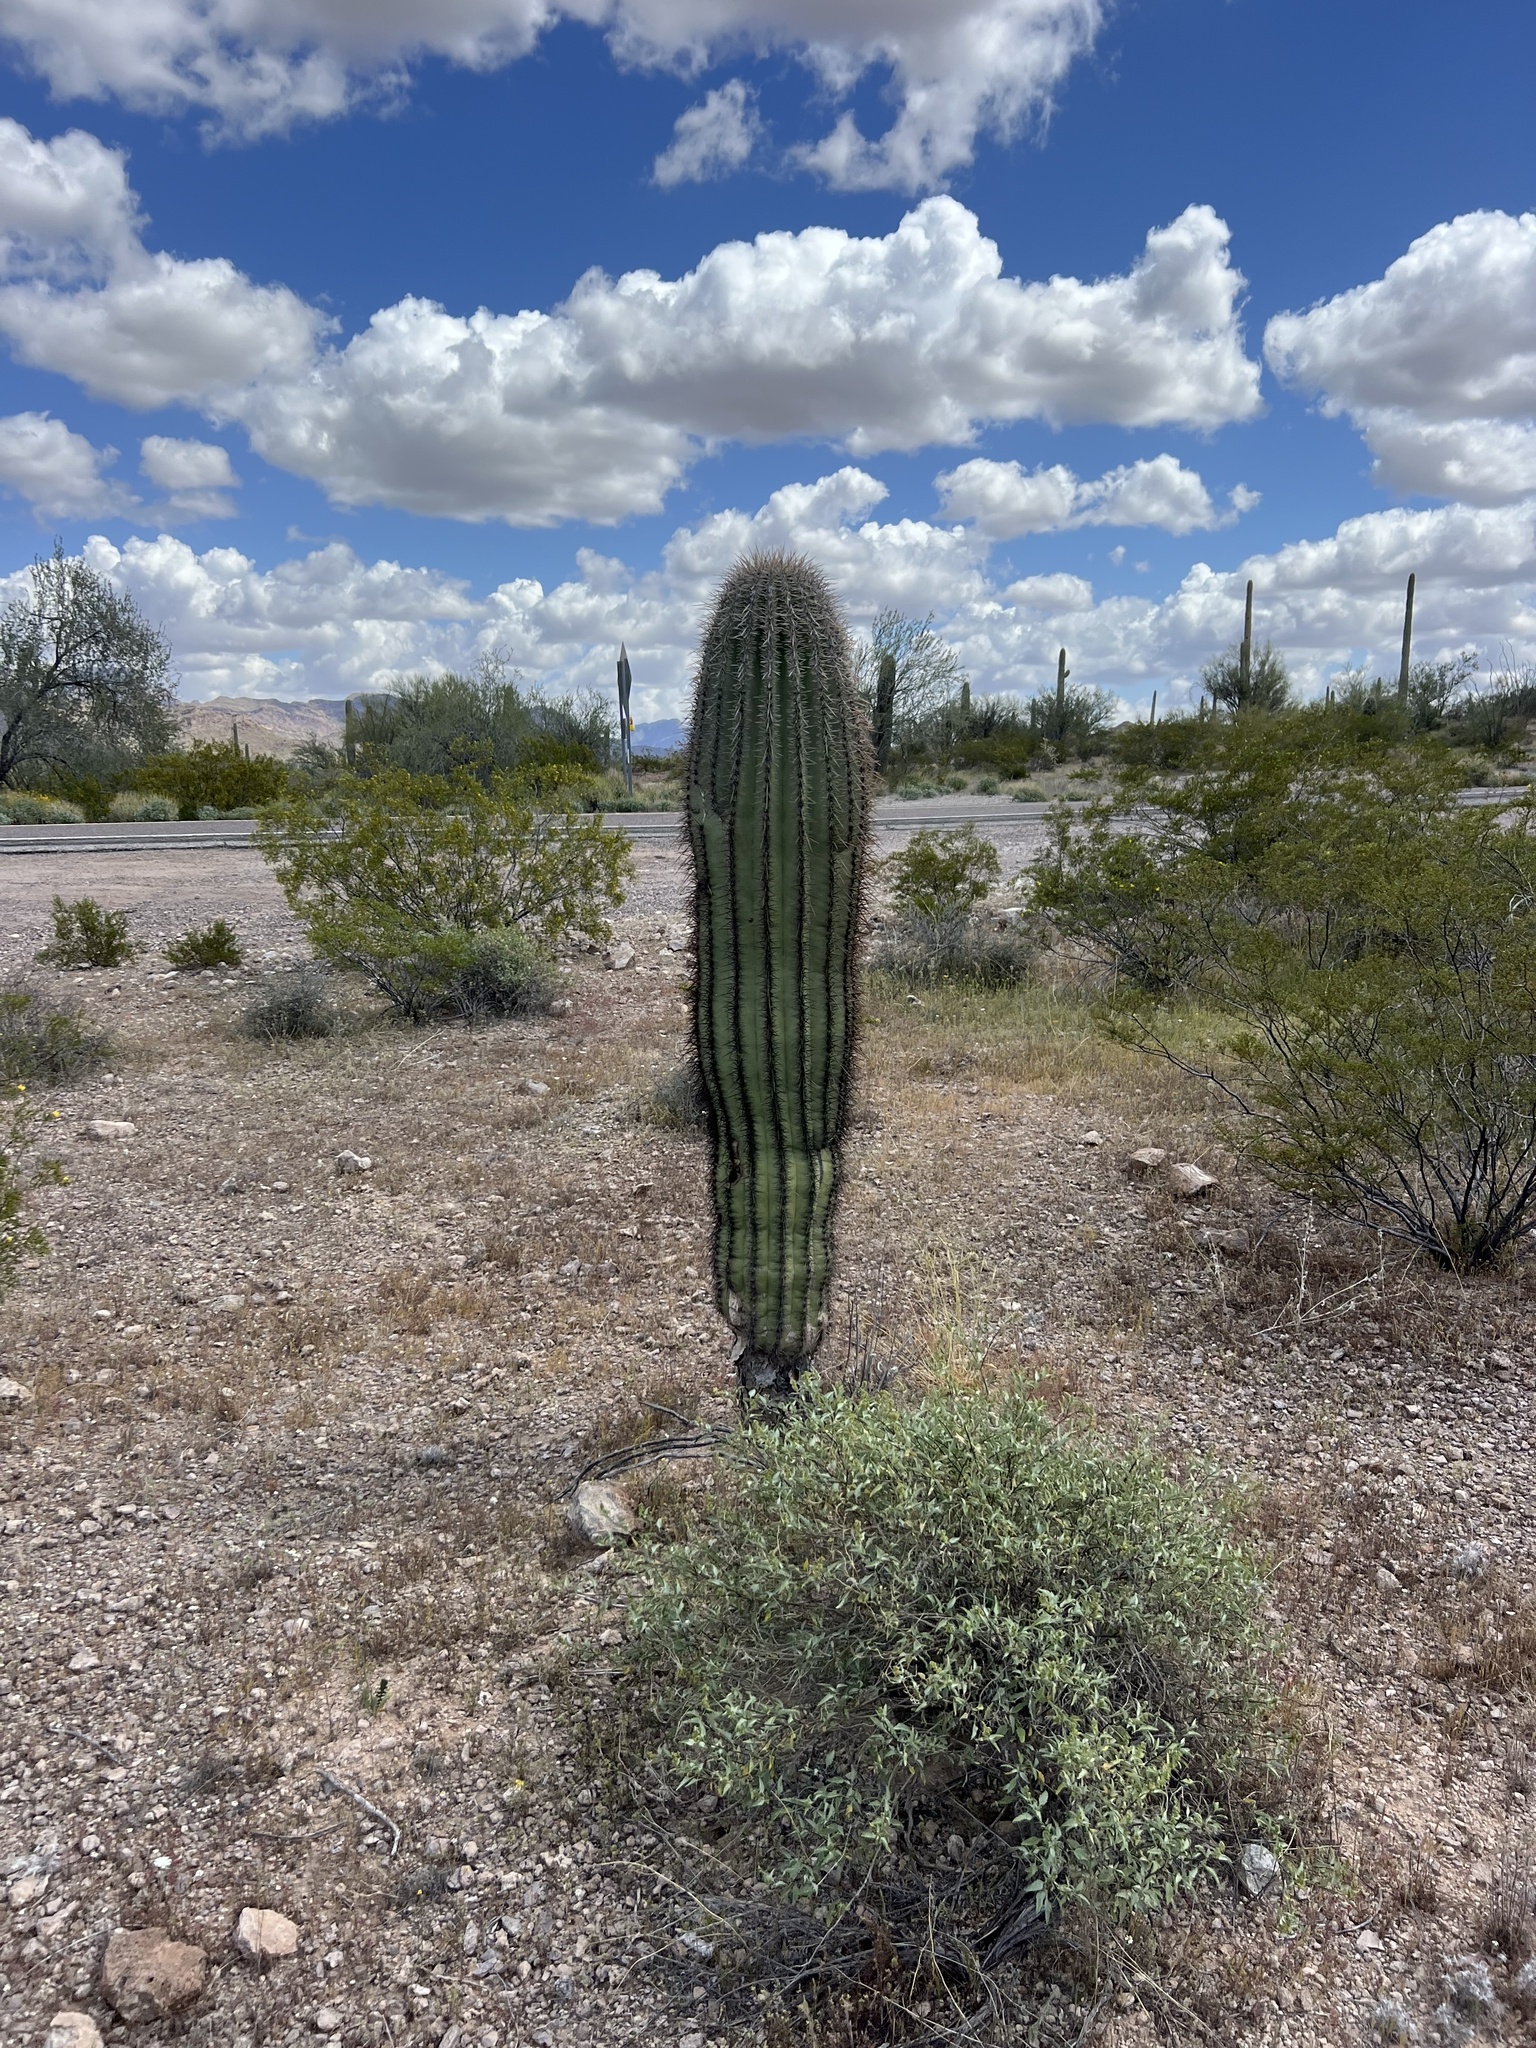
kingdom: Plantae
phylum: Tracheophyta
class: Magnoliopsida
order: Caryophyllales
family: Cactaceae
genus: Carnegiea
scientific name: Carnegiea gigantea
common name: Saguaro
